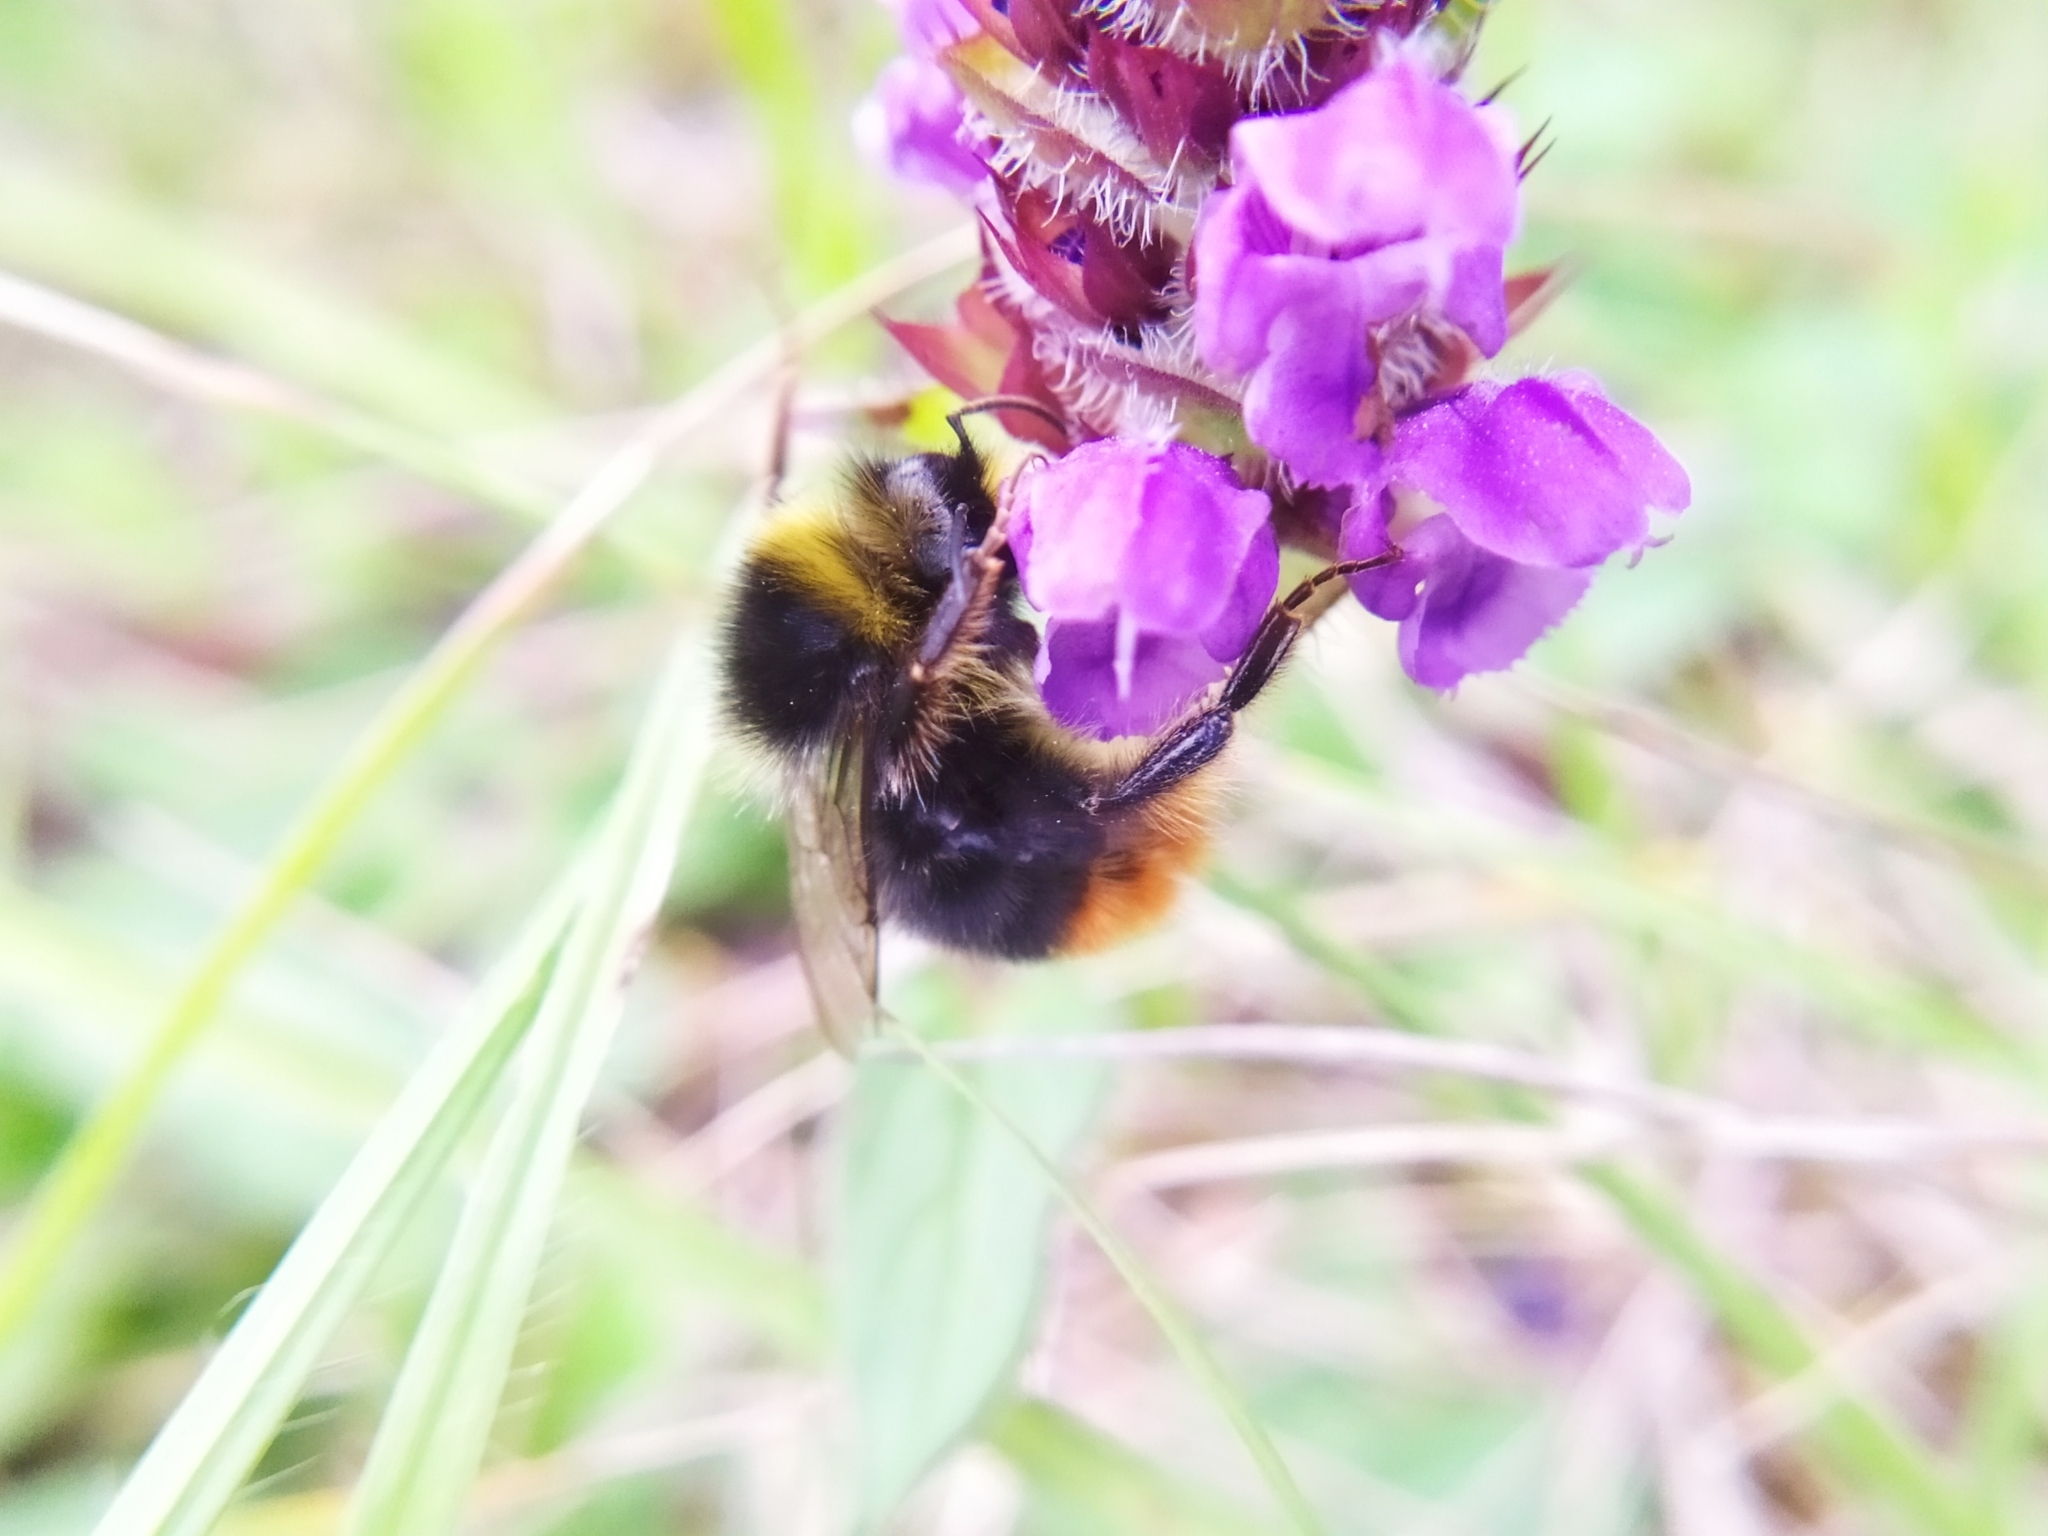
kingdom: Animalia
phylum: Arthropoda
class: Insecta
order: Hymenoptera
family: Apidae
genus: Bombus
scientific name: Bombus lapidarius
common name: Large red-tailed humble-bee
